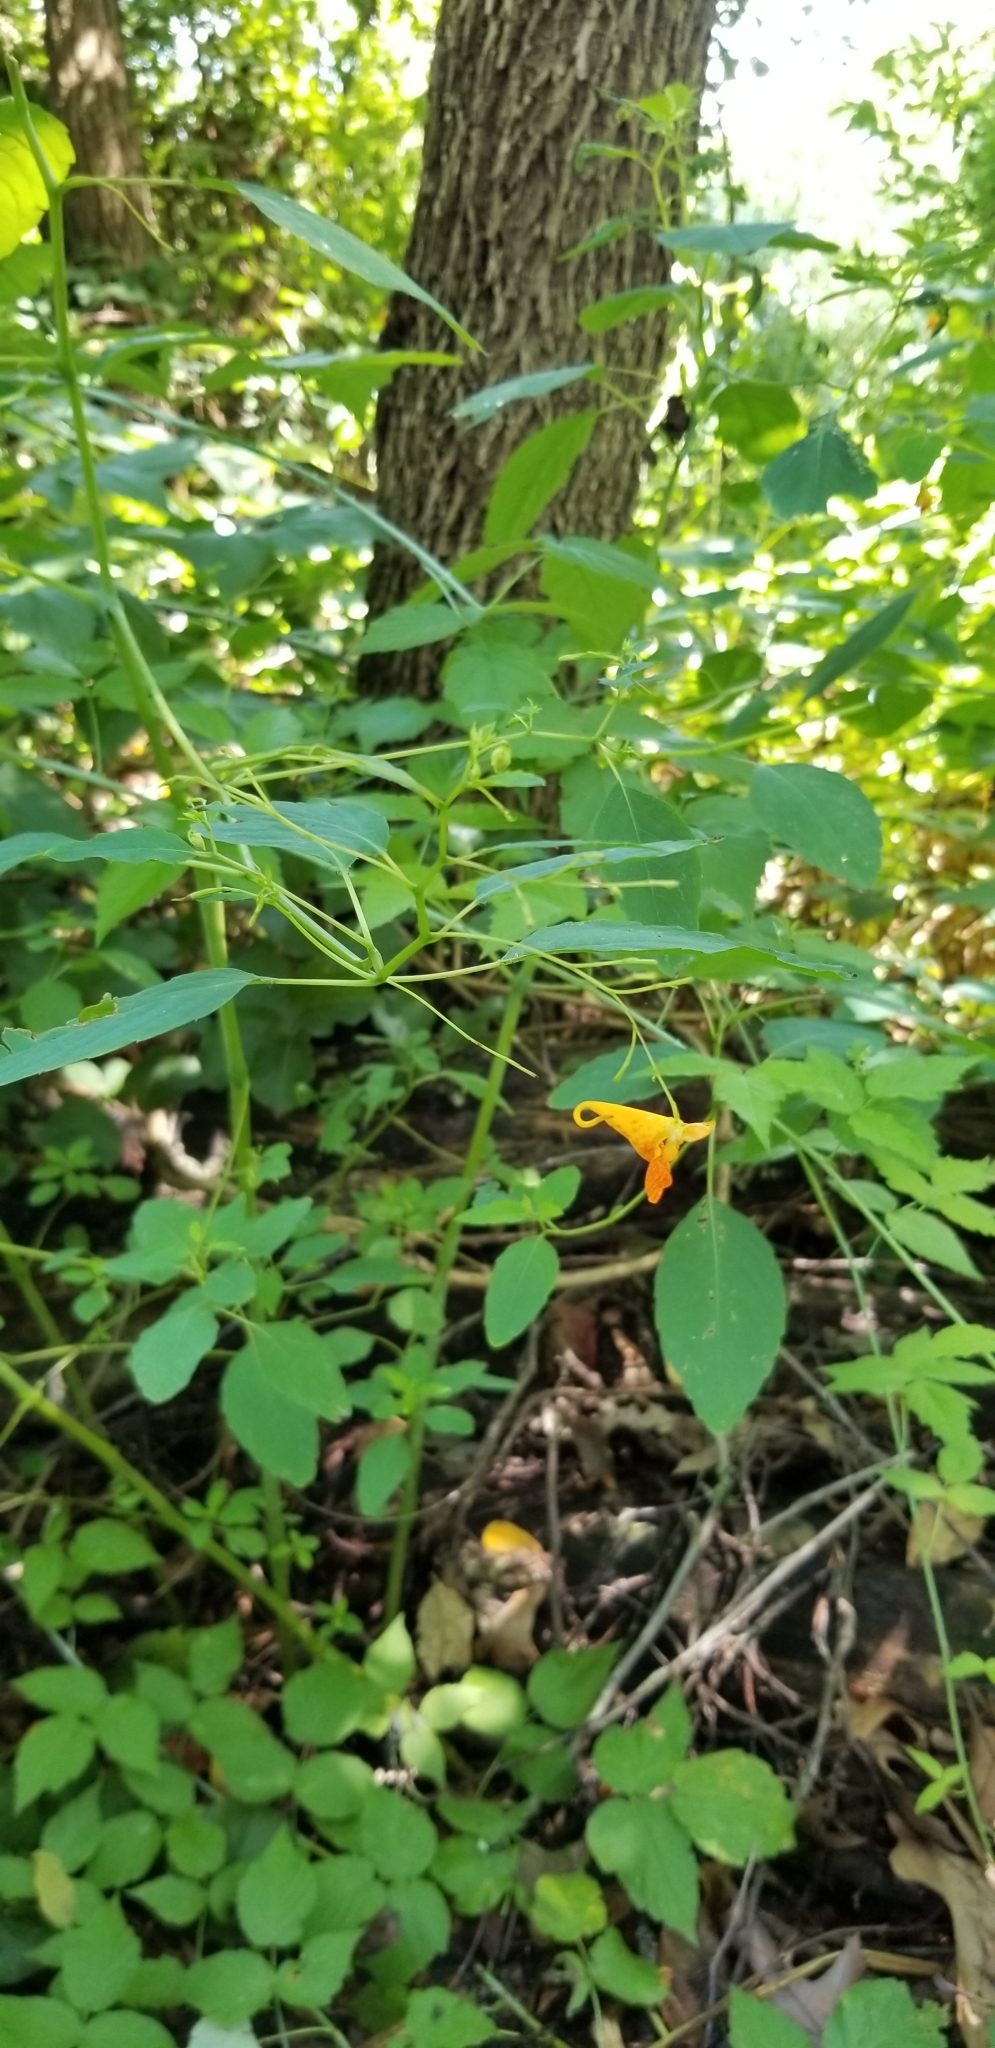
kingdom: Plantae
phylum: Tracheophyta
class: Magnoliopsida
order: Ericales
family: Balsaminaceae
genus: Impatiens
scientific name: Impatiens capensis
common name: Orange balsam
